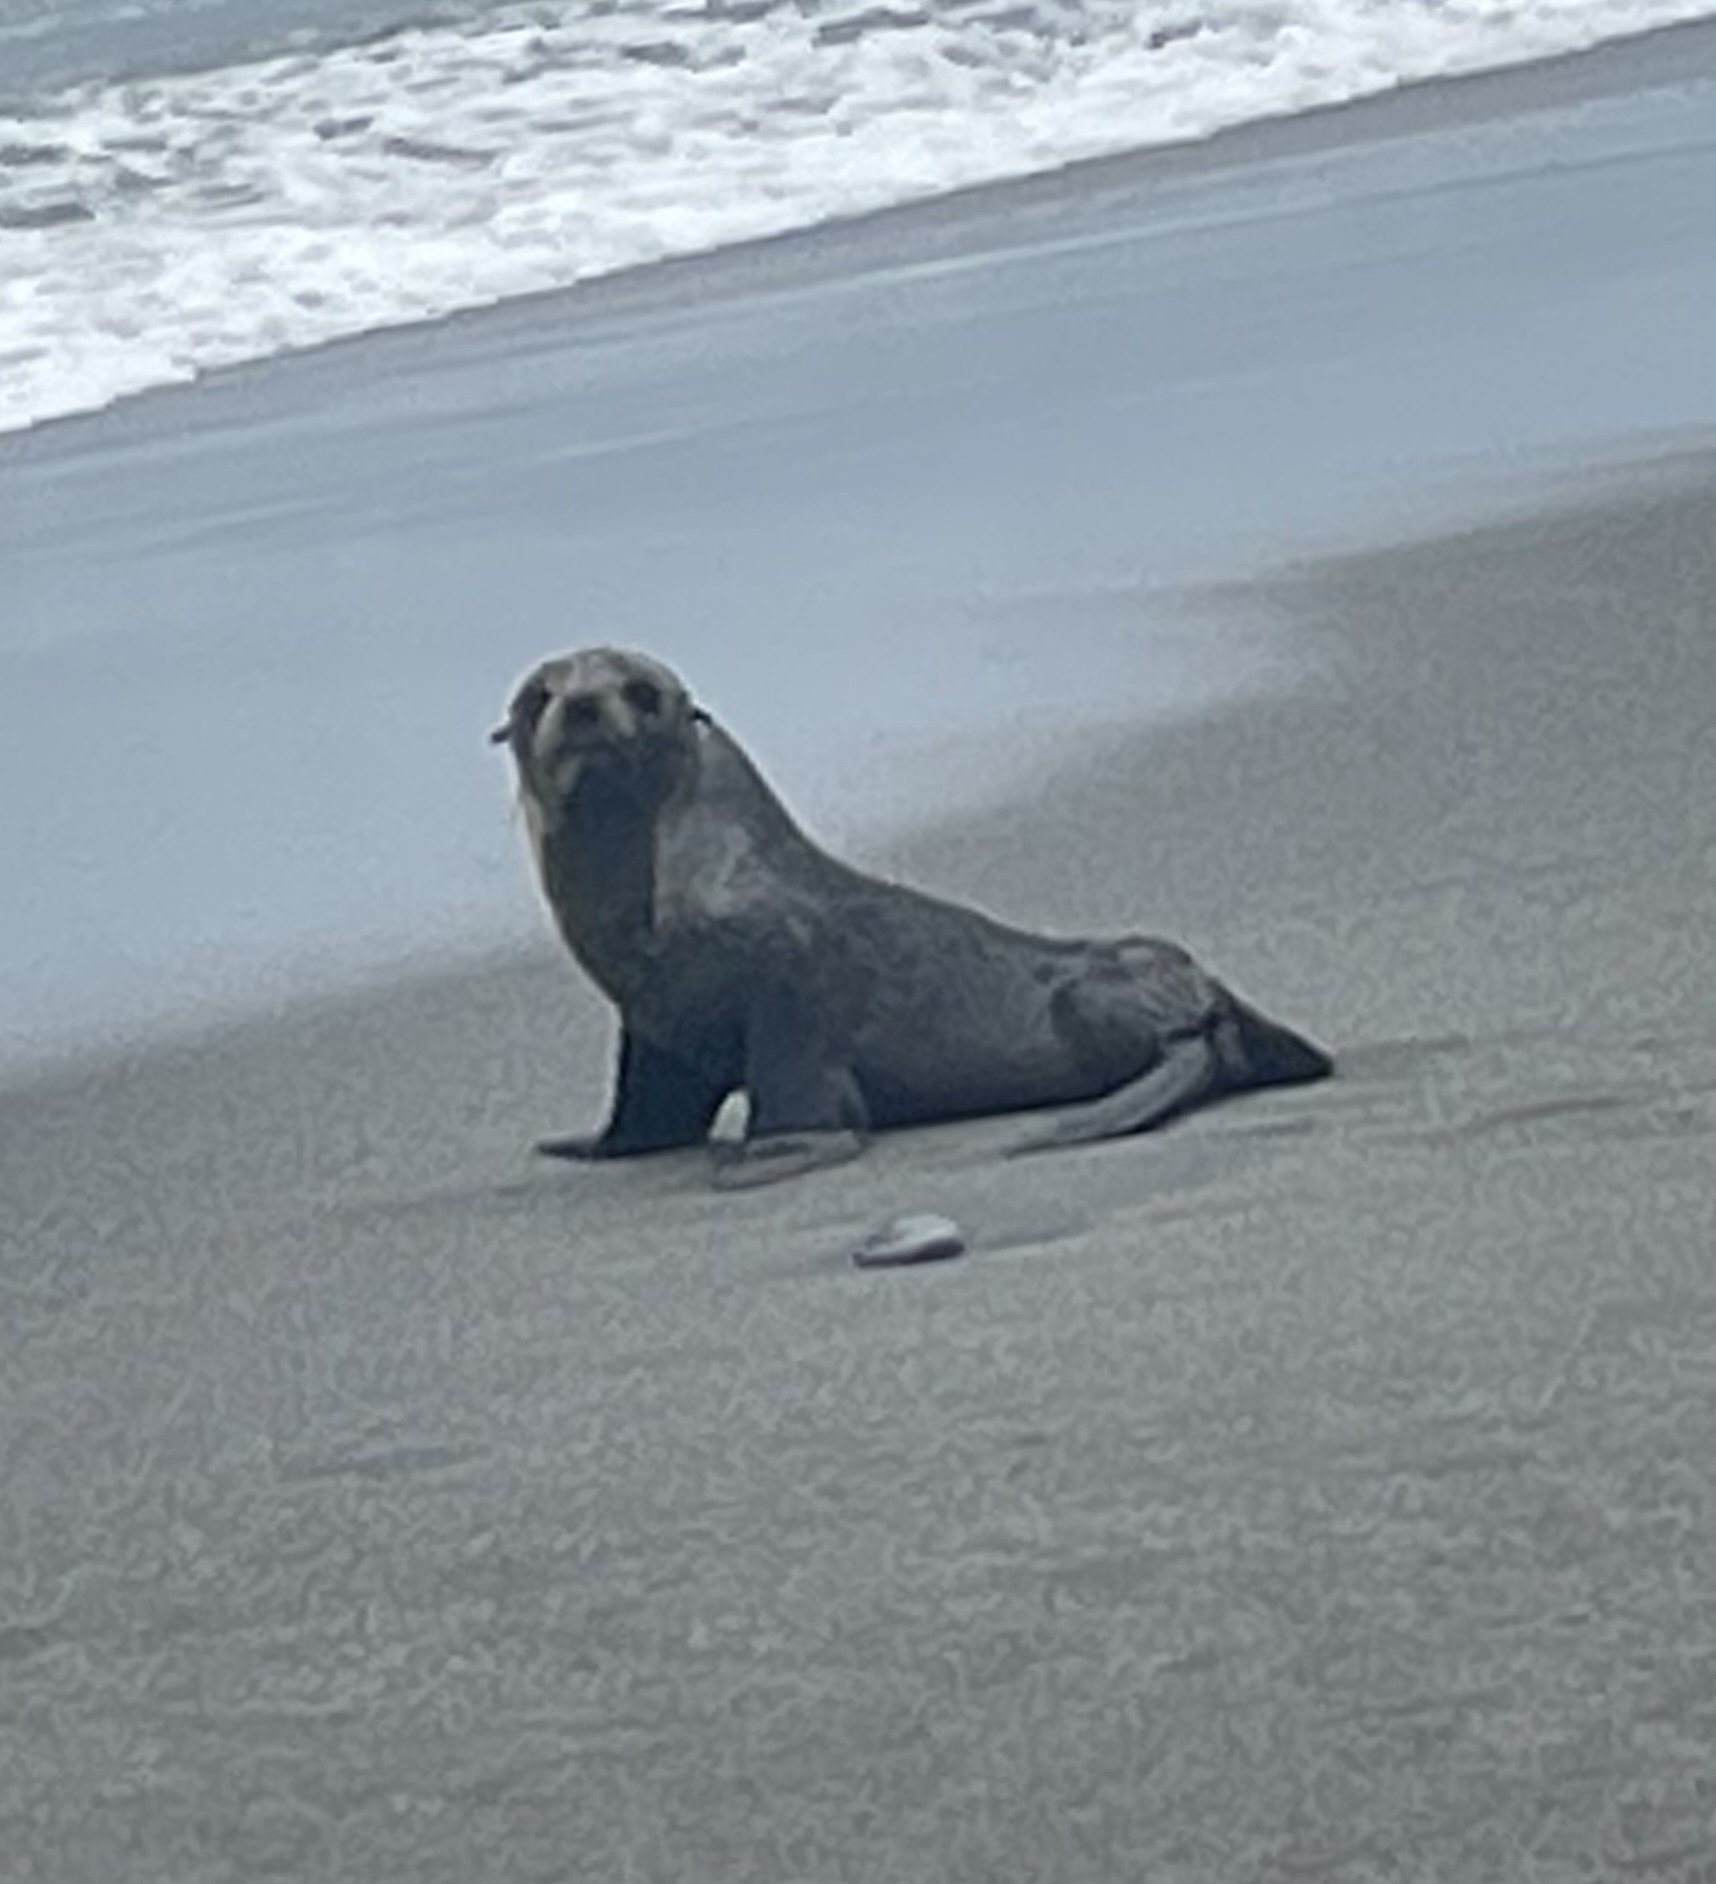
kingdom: Animalia
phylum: Chordata
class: Mammalia
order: Carnivora
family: Otariidae
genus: Arctocephalus
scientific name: Arctocephalus forsteri
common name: New zealand fur seal
